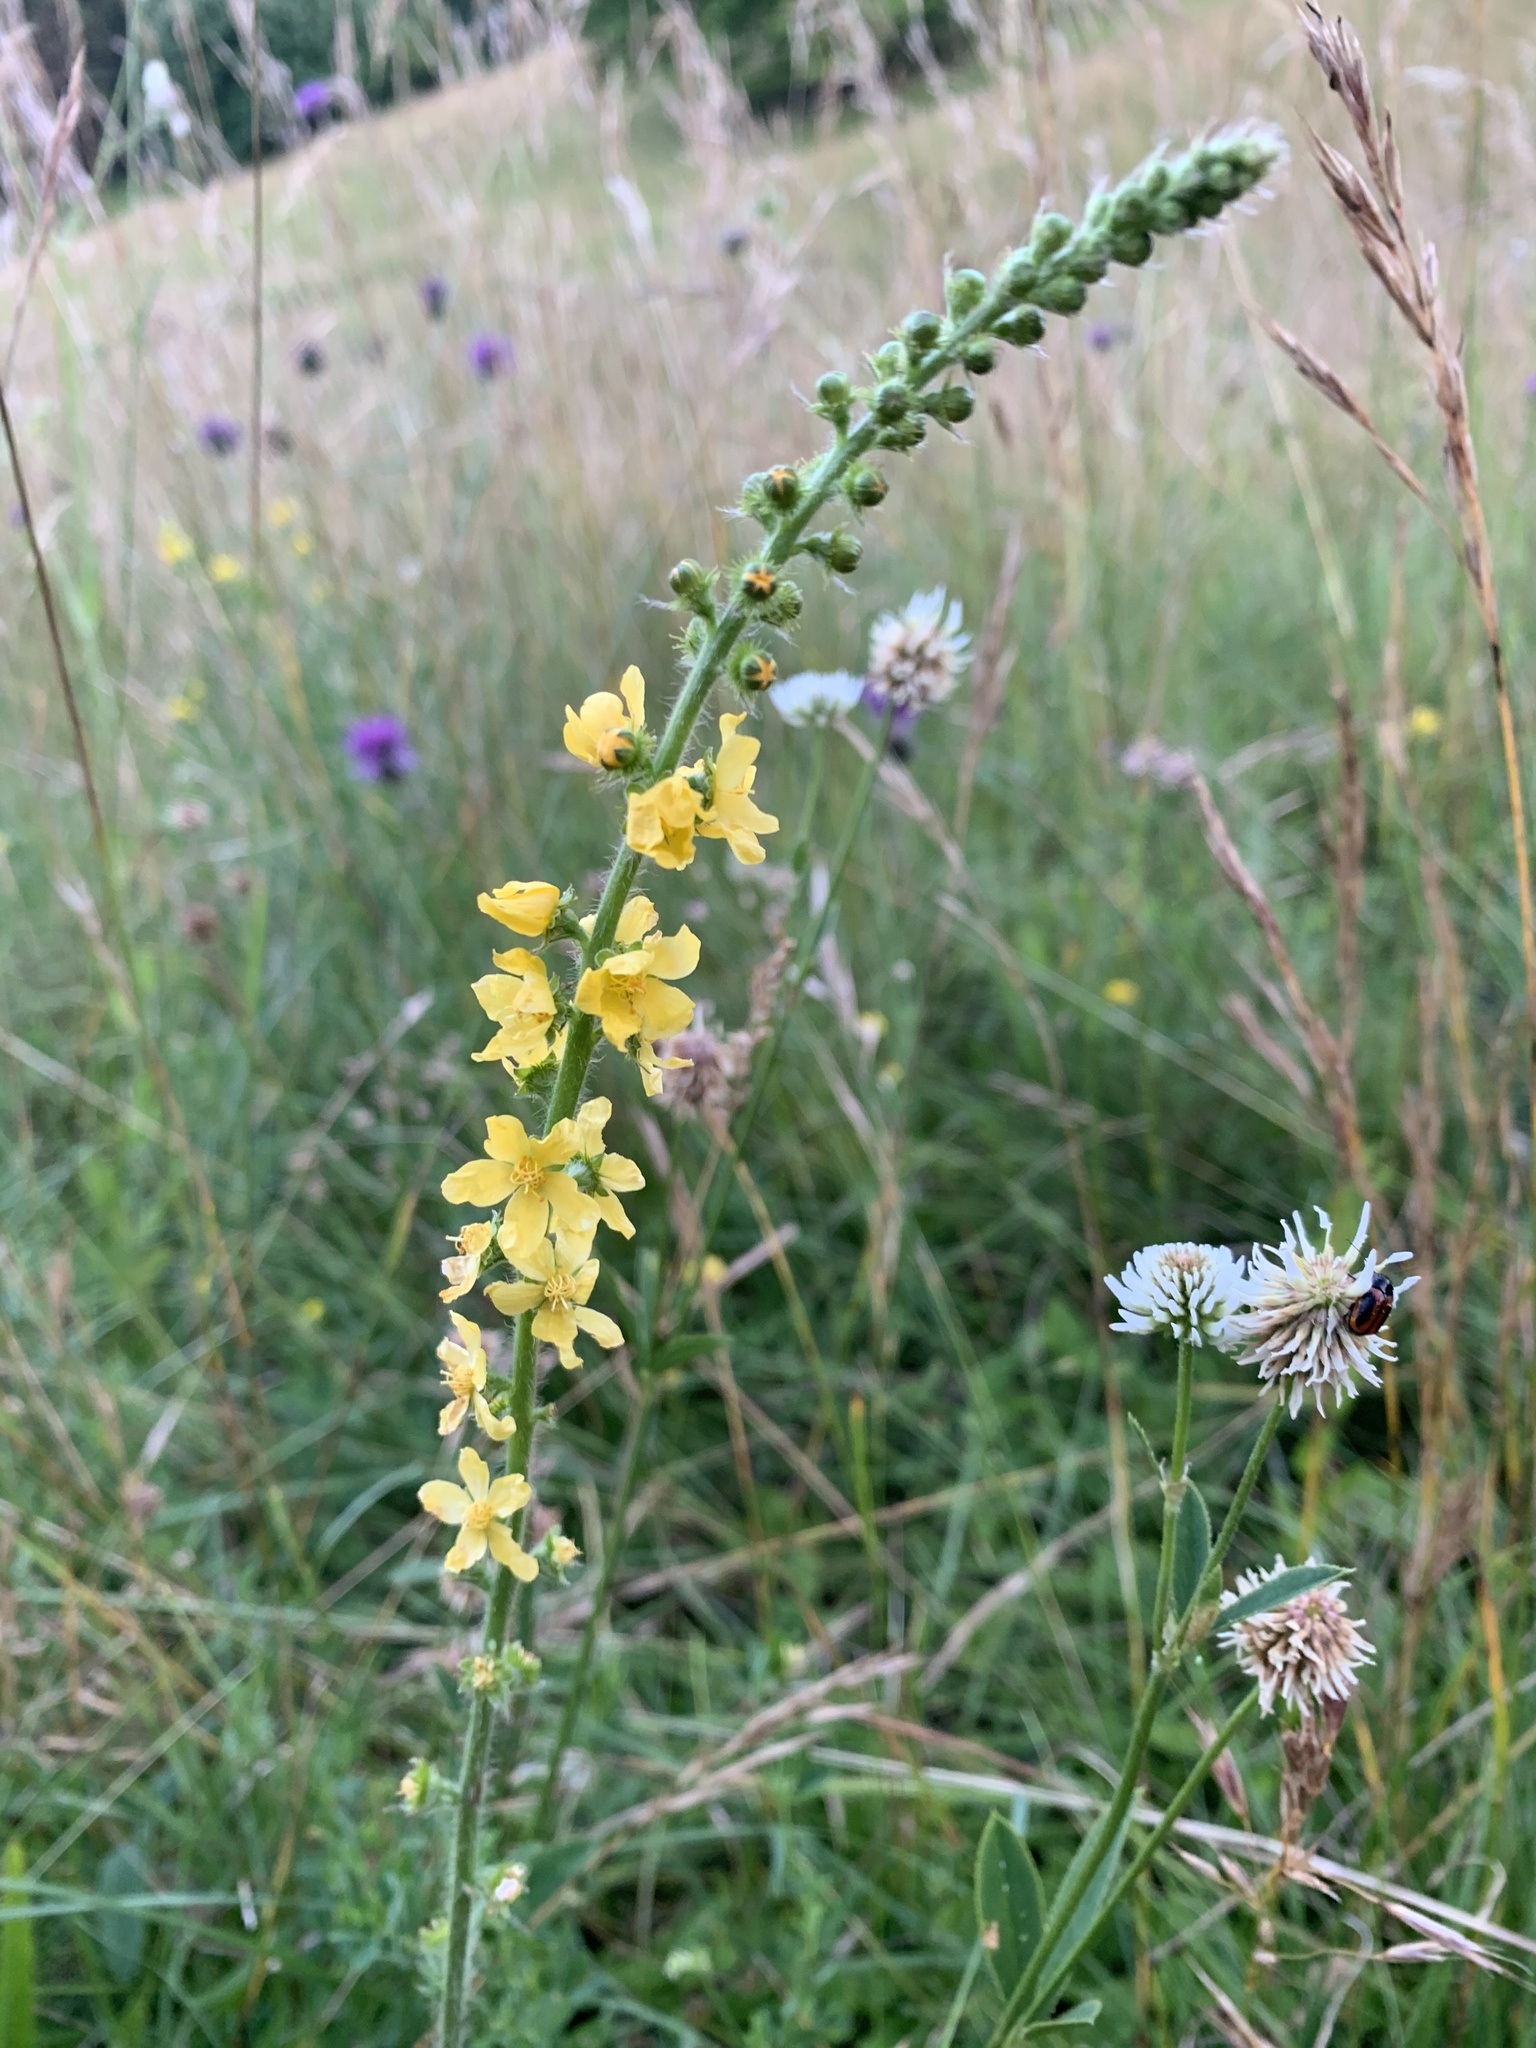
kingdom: Plantae
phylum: Tracheophyta
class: Magnoliopsida
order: Rosales
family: Rosaceae
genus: Agrimonia
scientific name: Agrimonia eupatoria
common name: Agrimony
